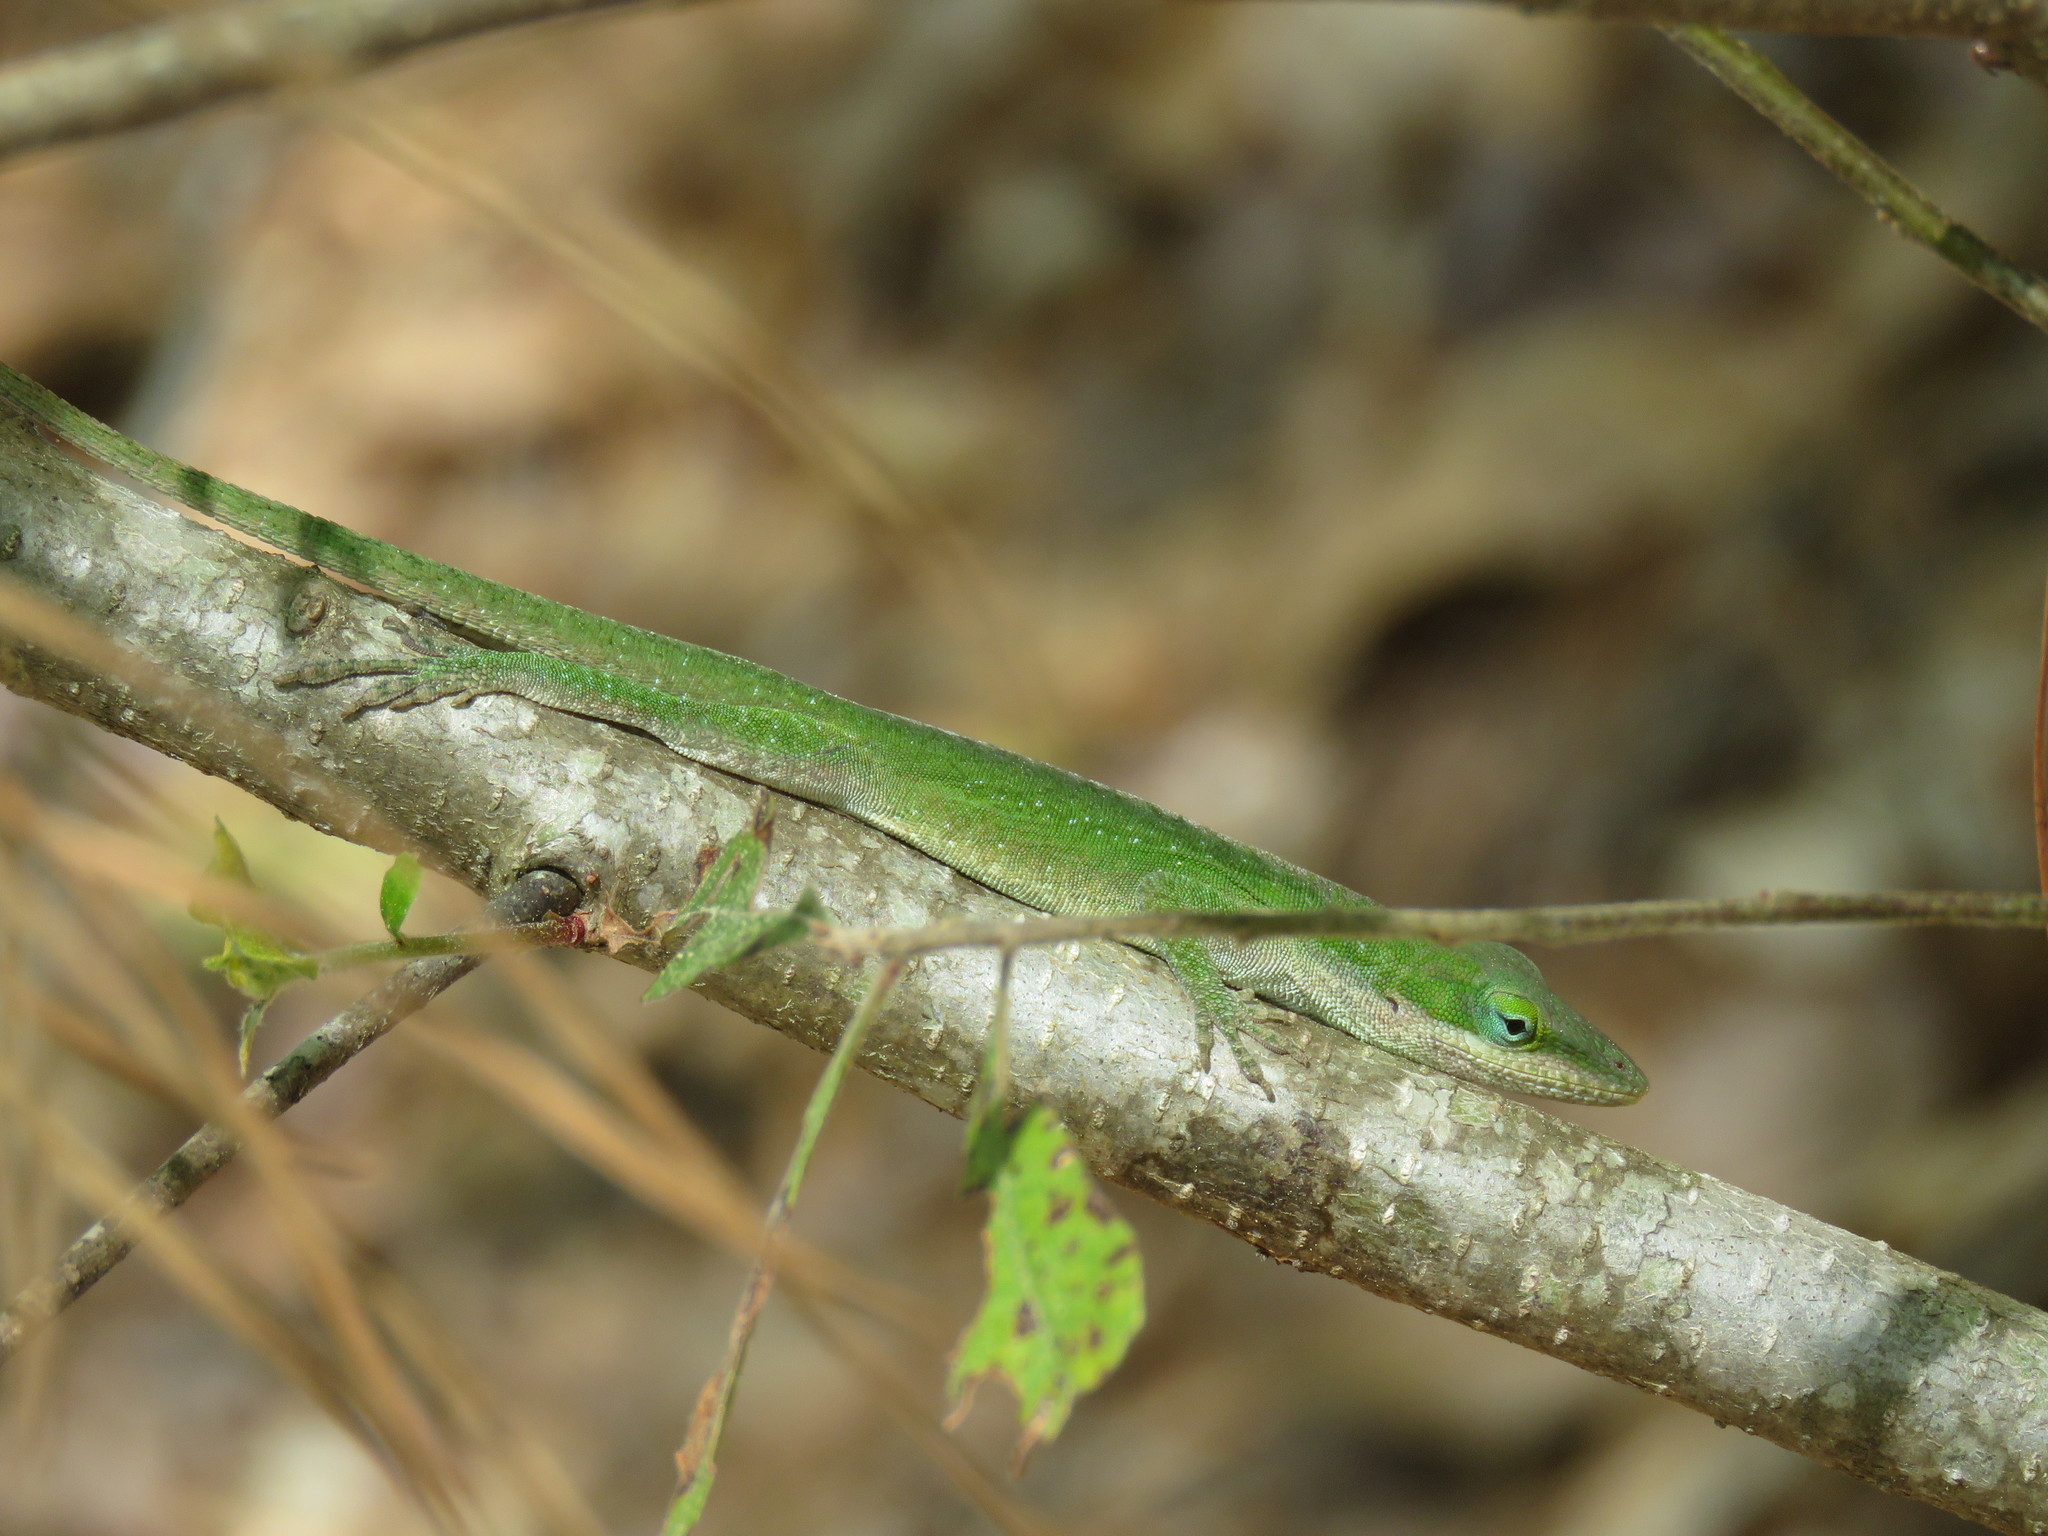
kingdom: Animalia
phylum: Chordata
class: Squamata
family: Dactyloidae
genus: Anolis
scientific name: Anolis carolinensis
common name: Green anole
